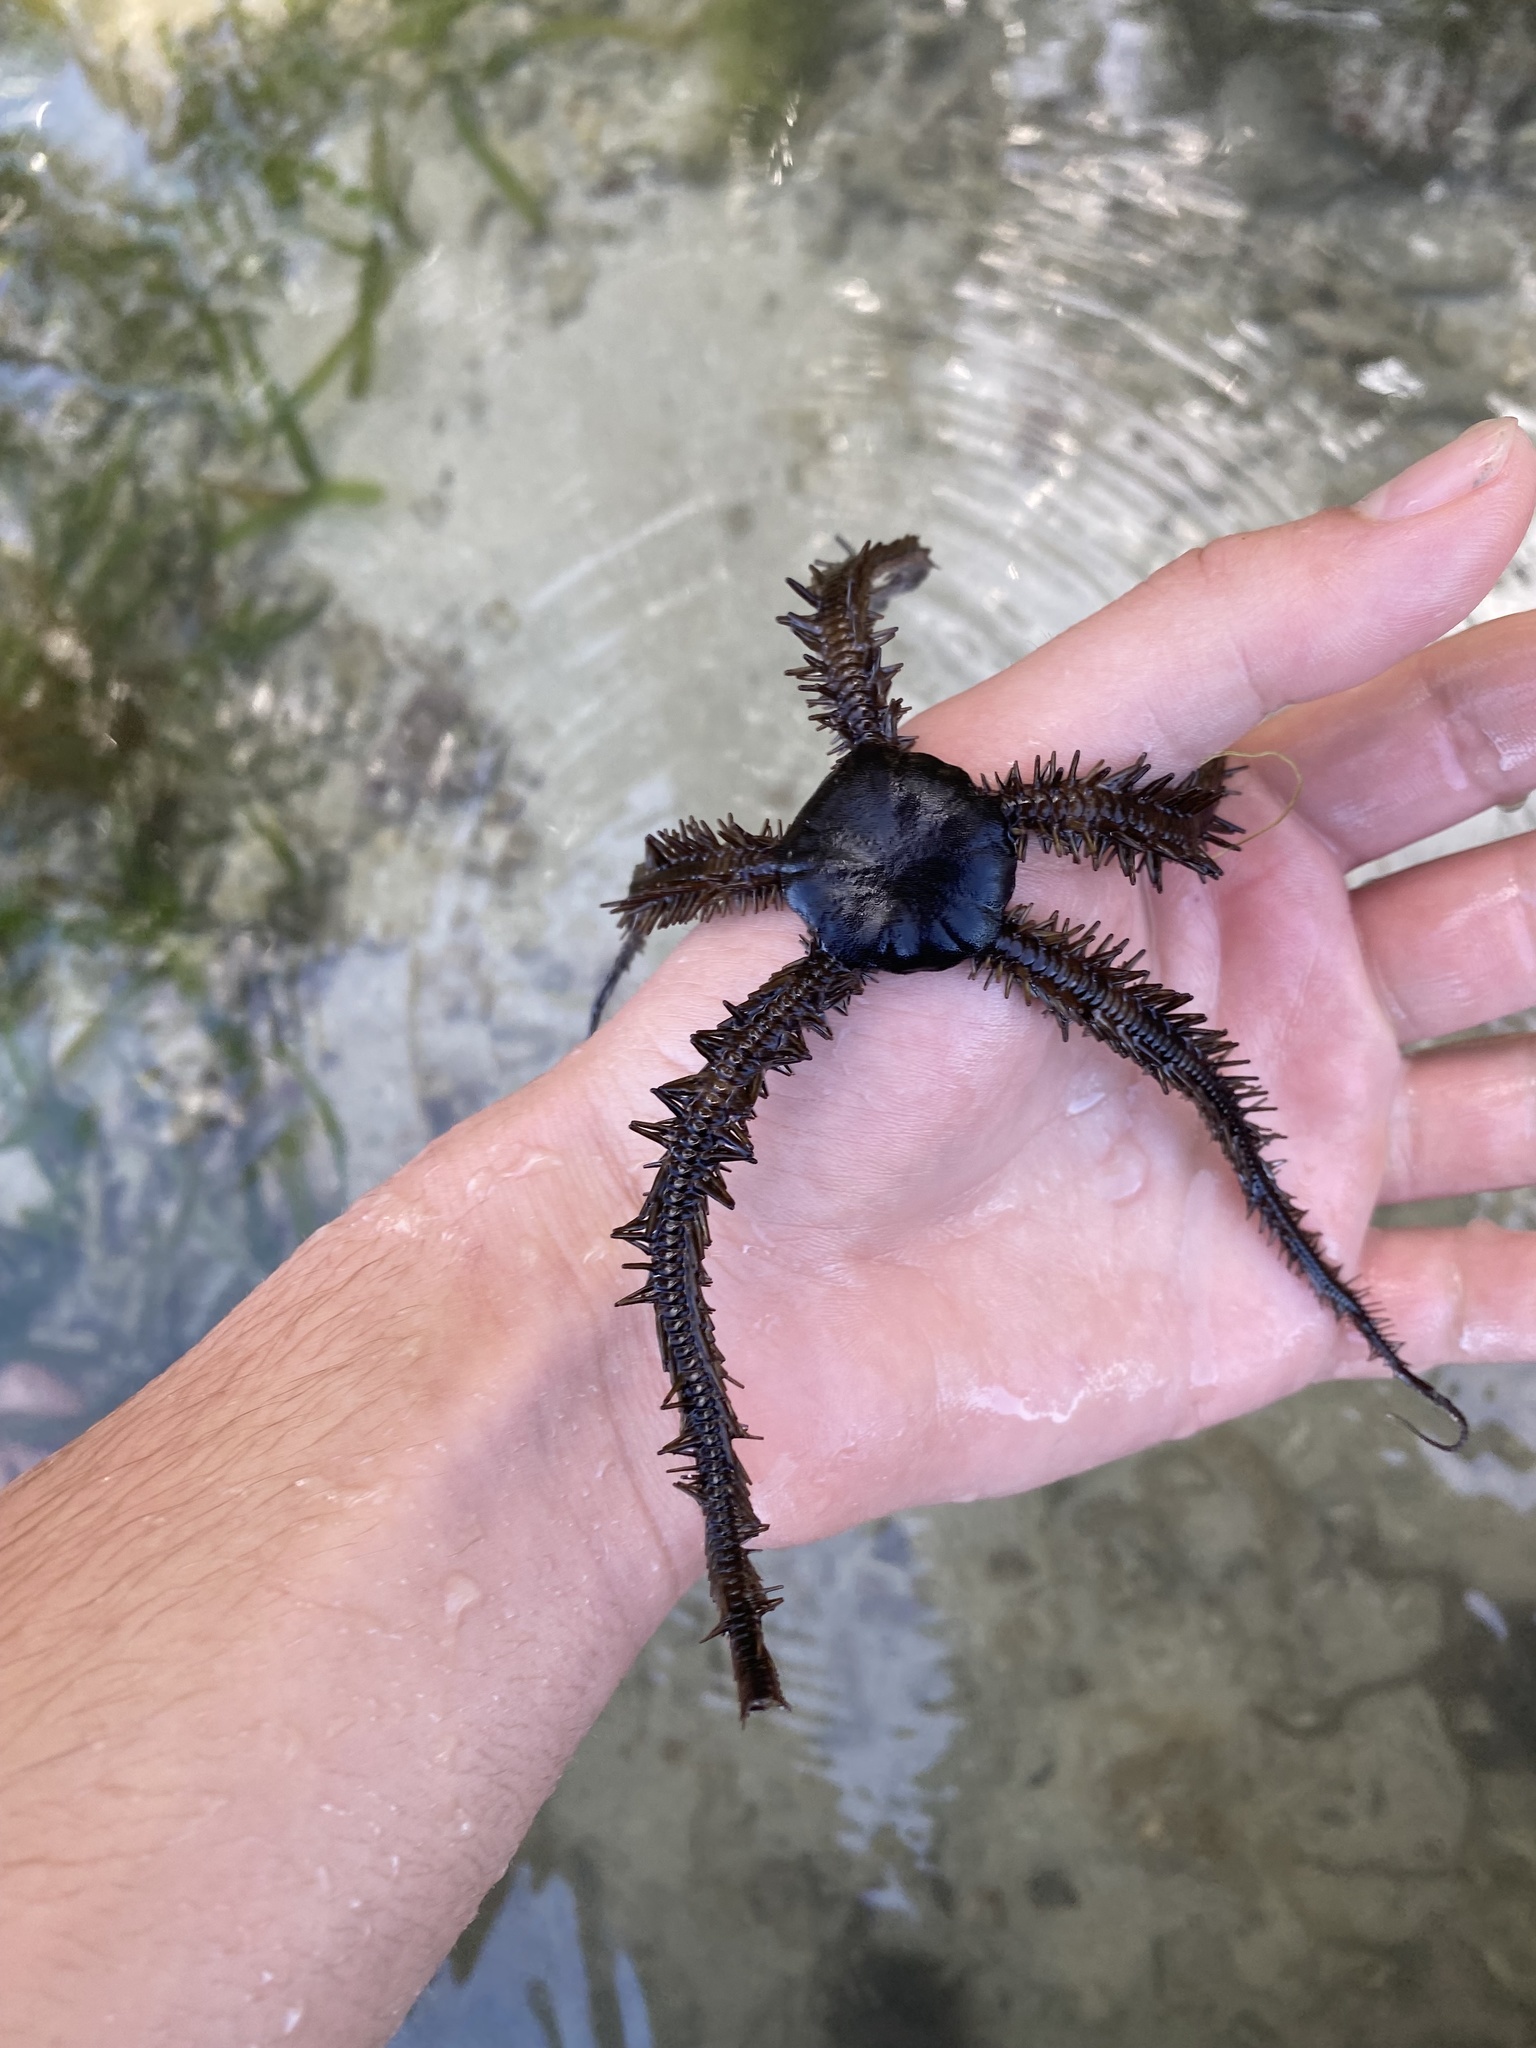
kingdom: Animalia
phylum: Echinodermata
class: Ophiuroidea
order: Ophiacanthida
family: Ophiocomidae
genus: Ophiocoma
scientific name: Ophiocoma aethiops
